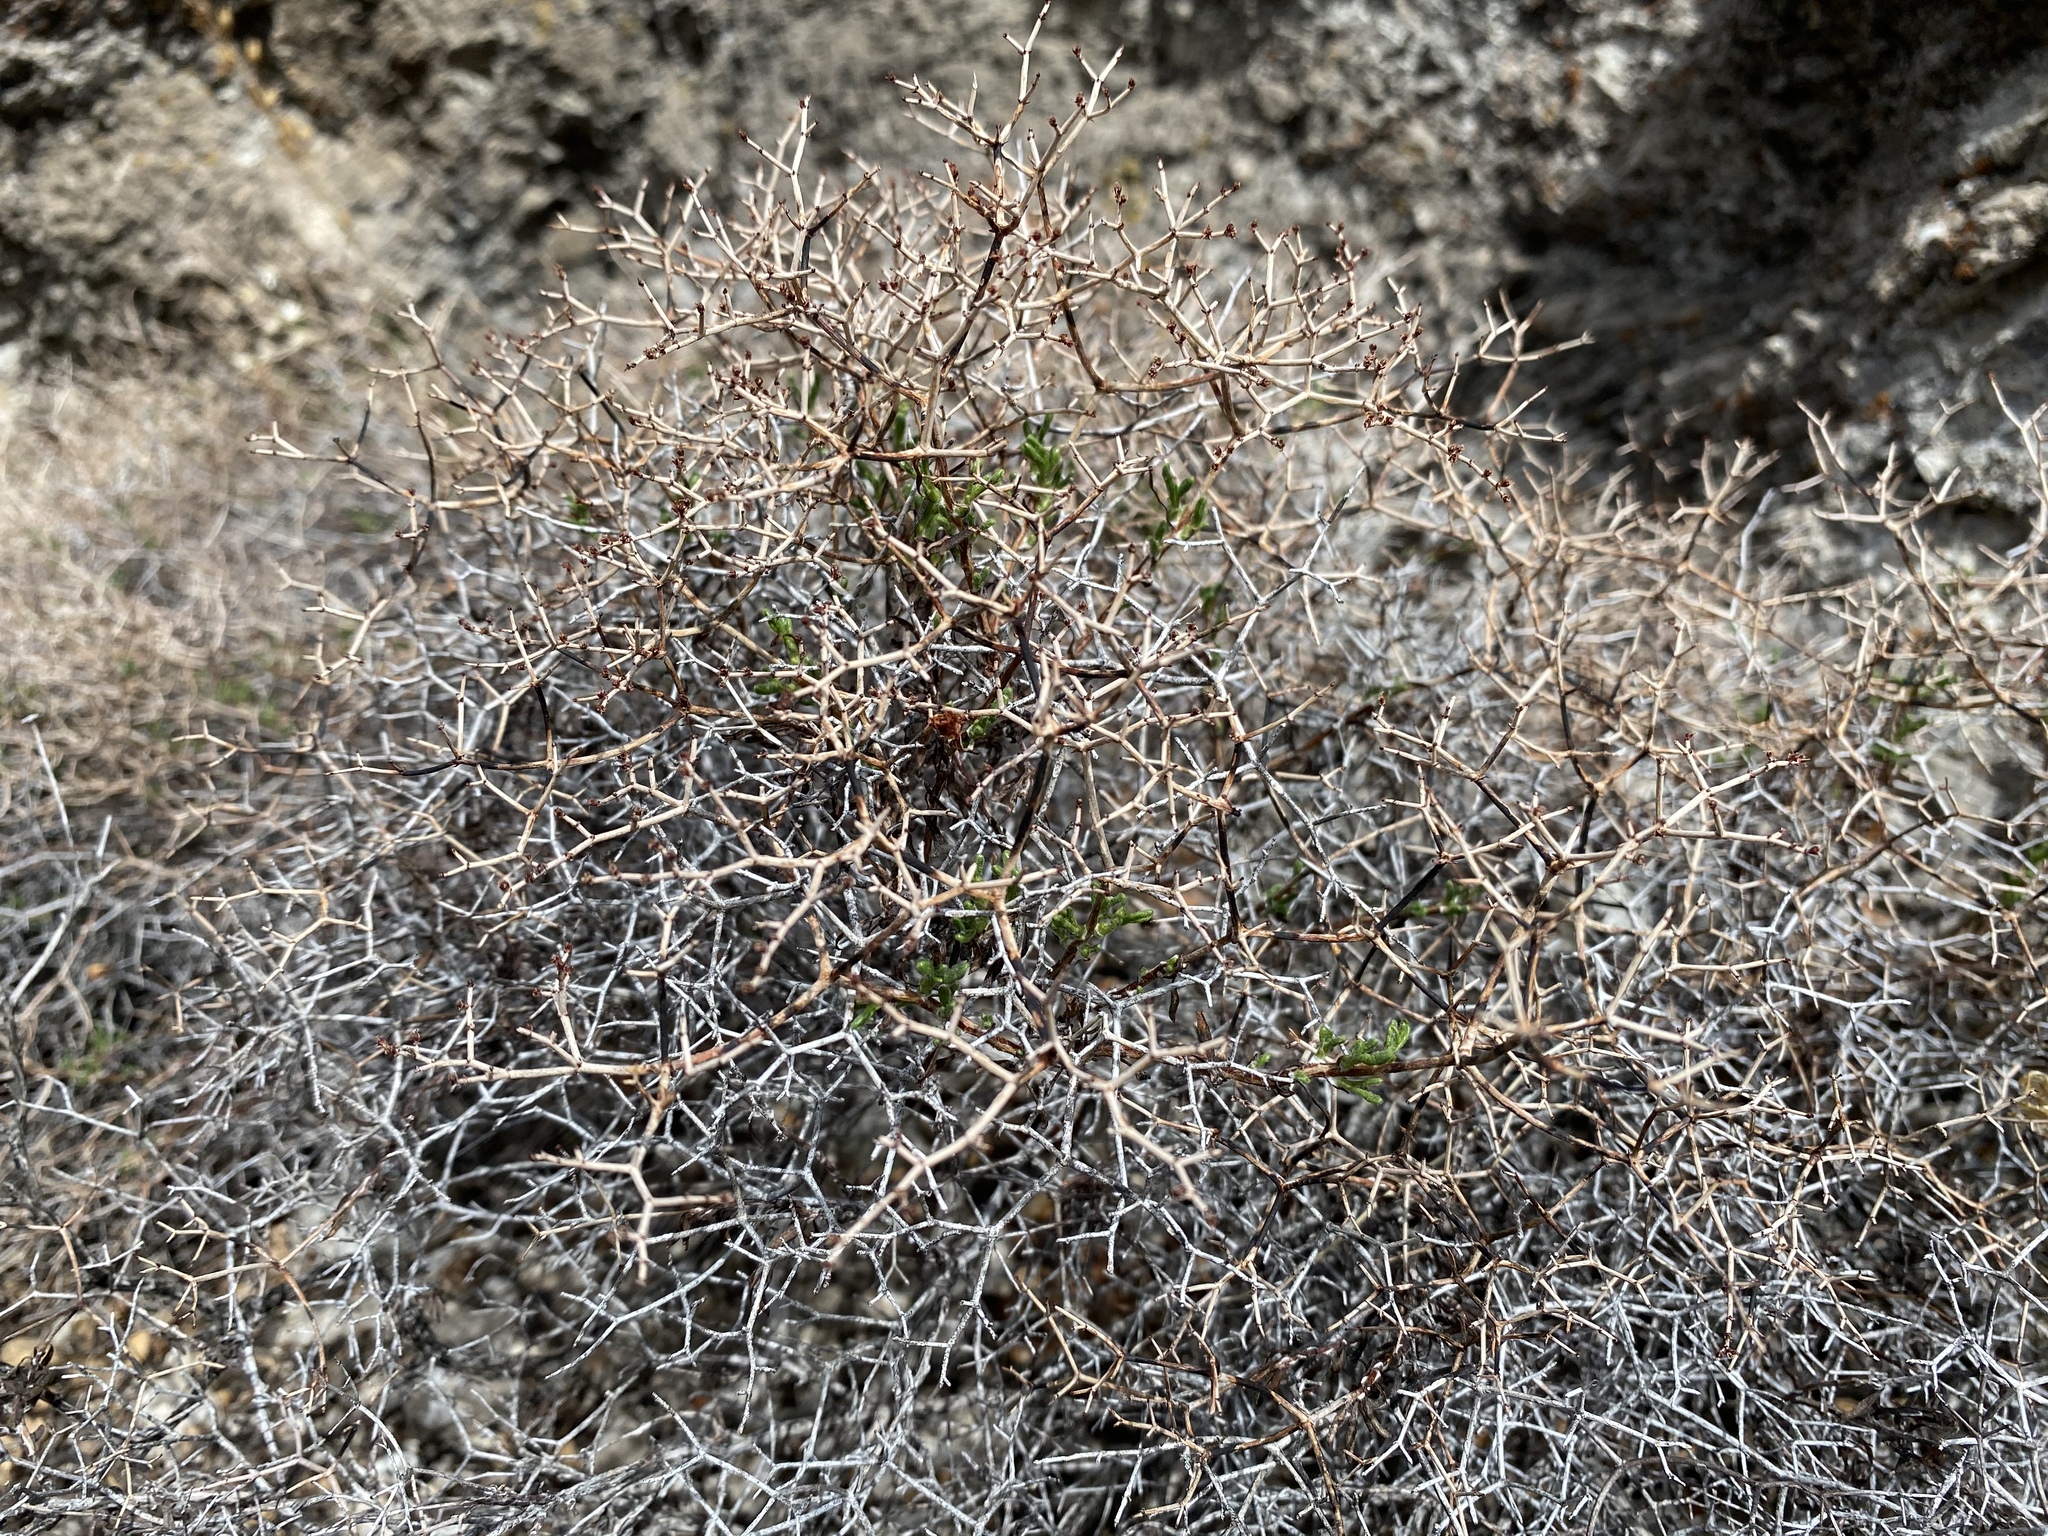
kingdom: Plantae
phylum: Tracheophyta
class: Magnoliopsida
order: Caryophyllales
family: Polygonaceae
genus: Eriogonum
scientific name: Eriogonum heermannii
